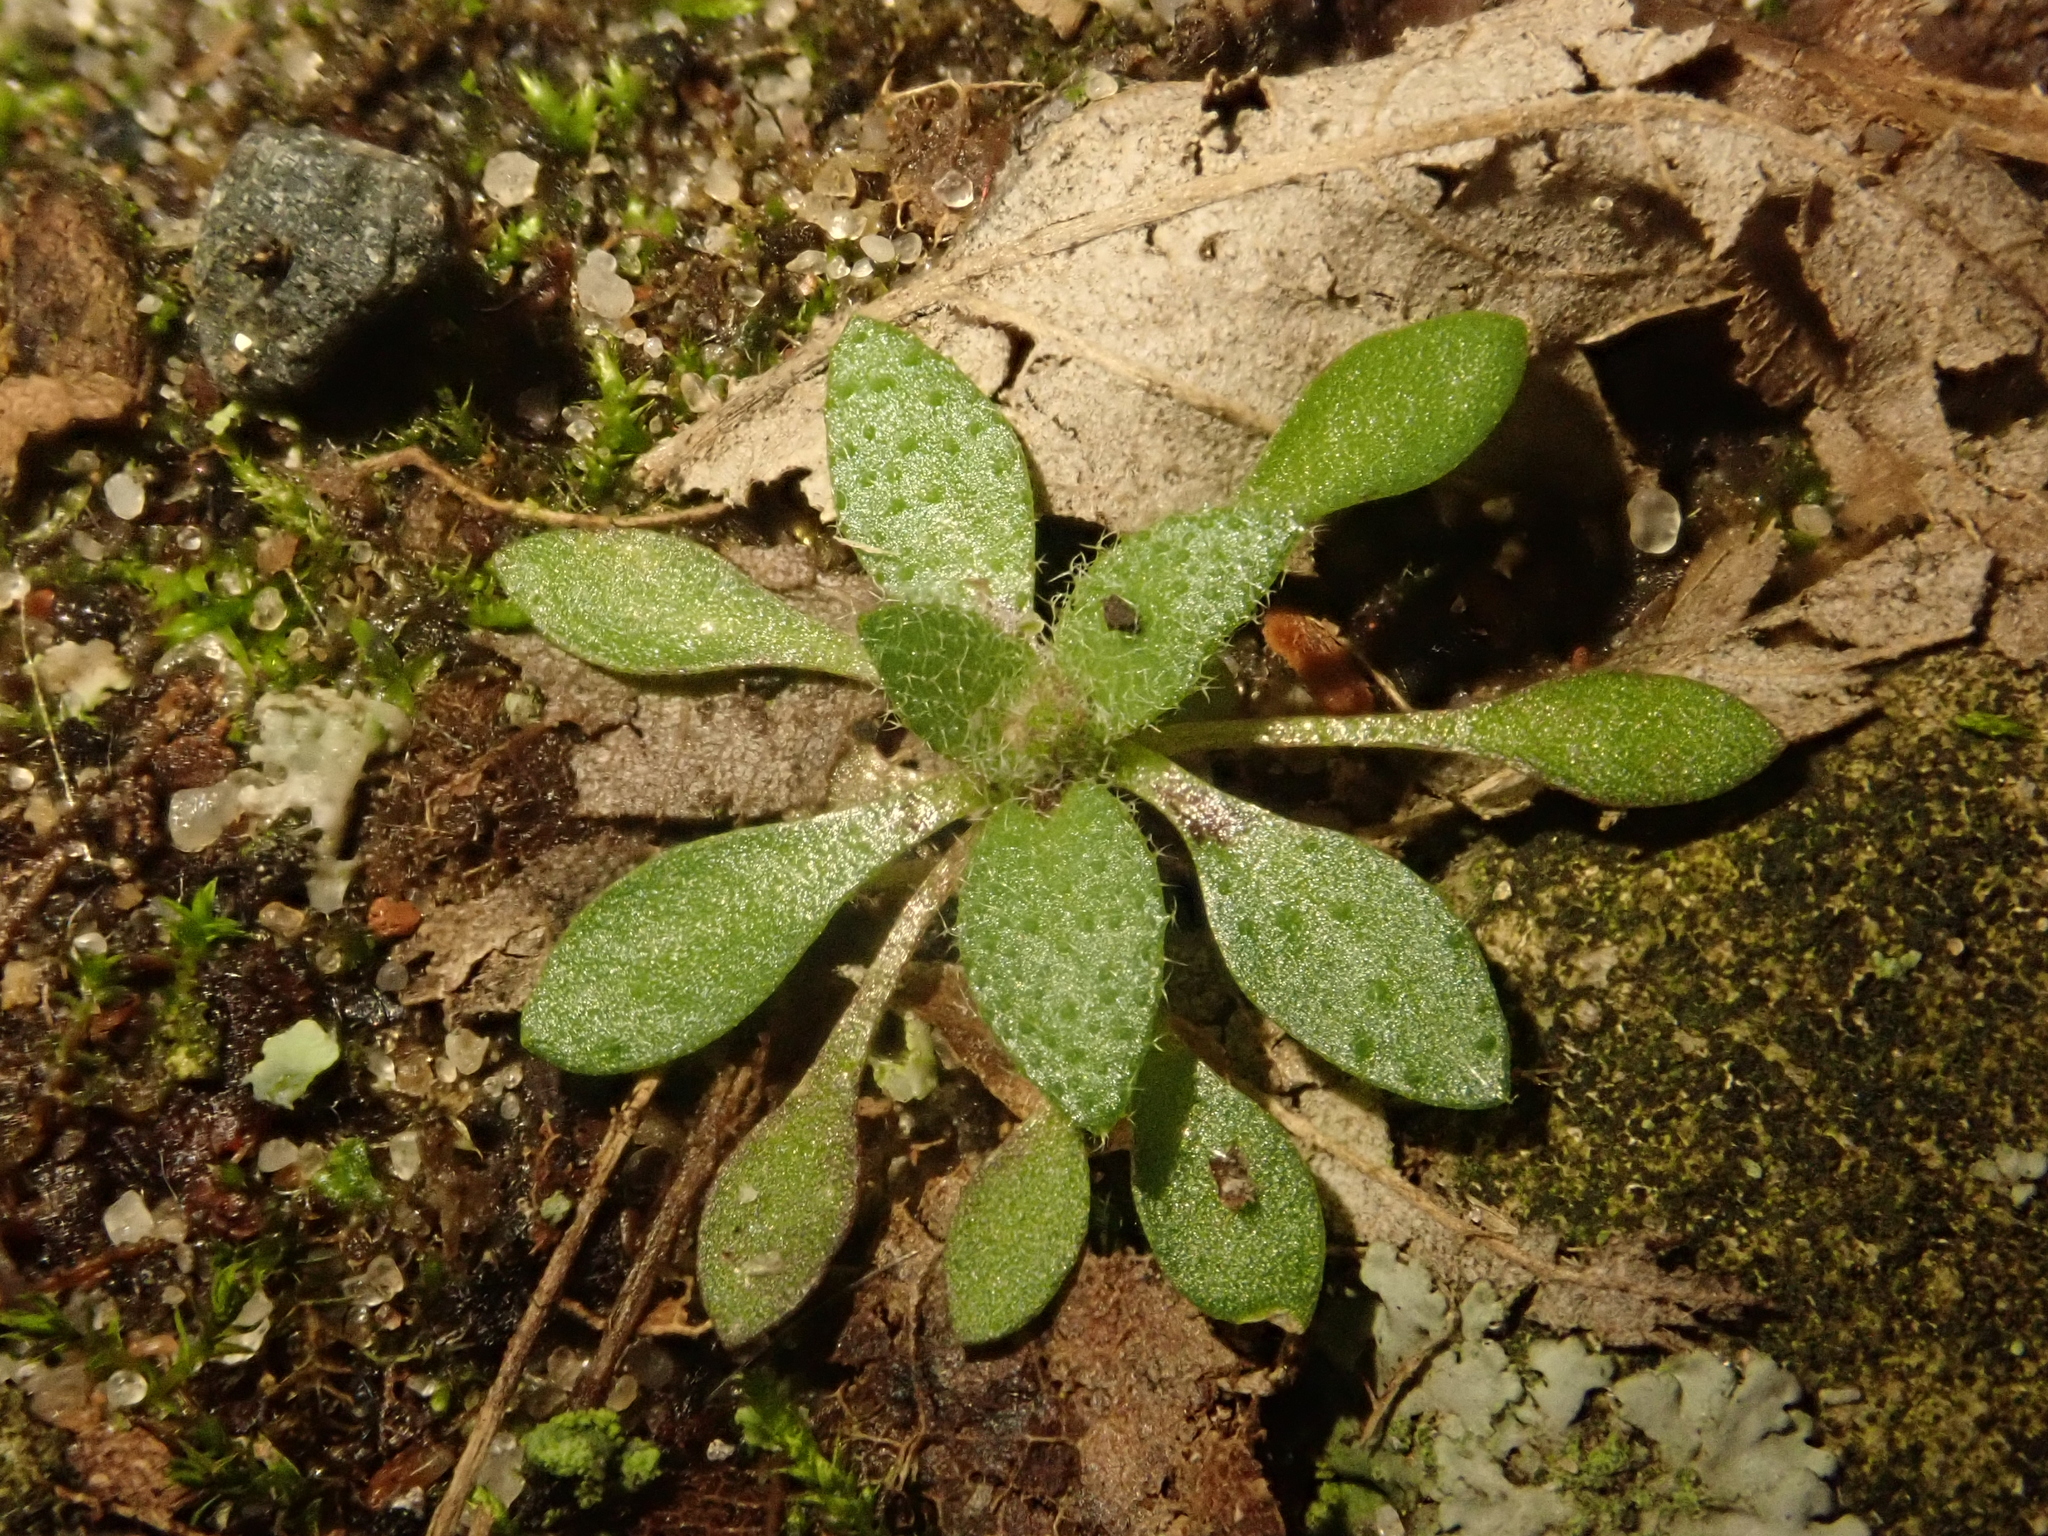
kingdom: Plantae
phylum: Tracheophyta
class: Magnoliopsida
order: Brassicales
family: Brassicaceae
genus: Draba
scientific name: Draba verna
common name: Spring draba
